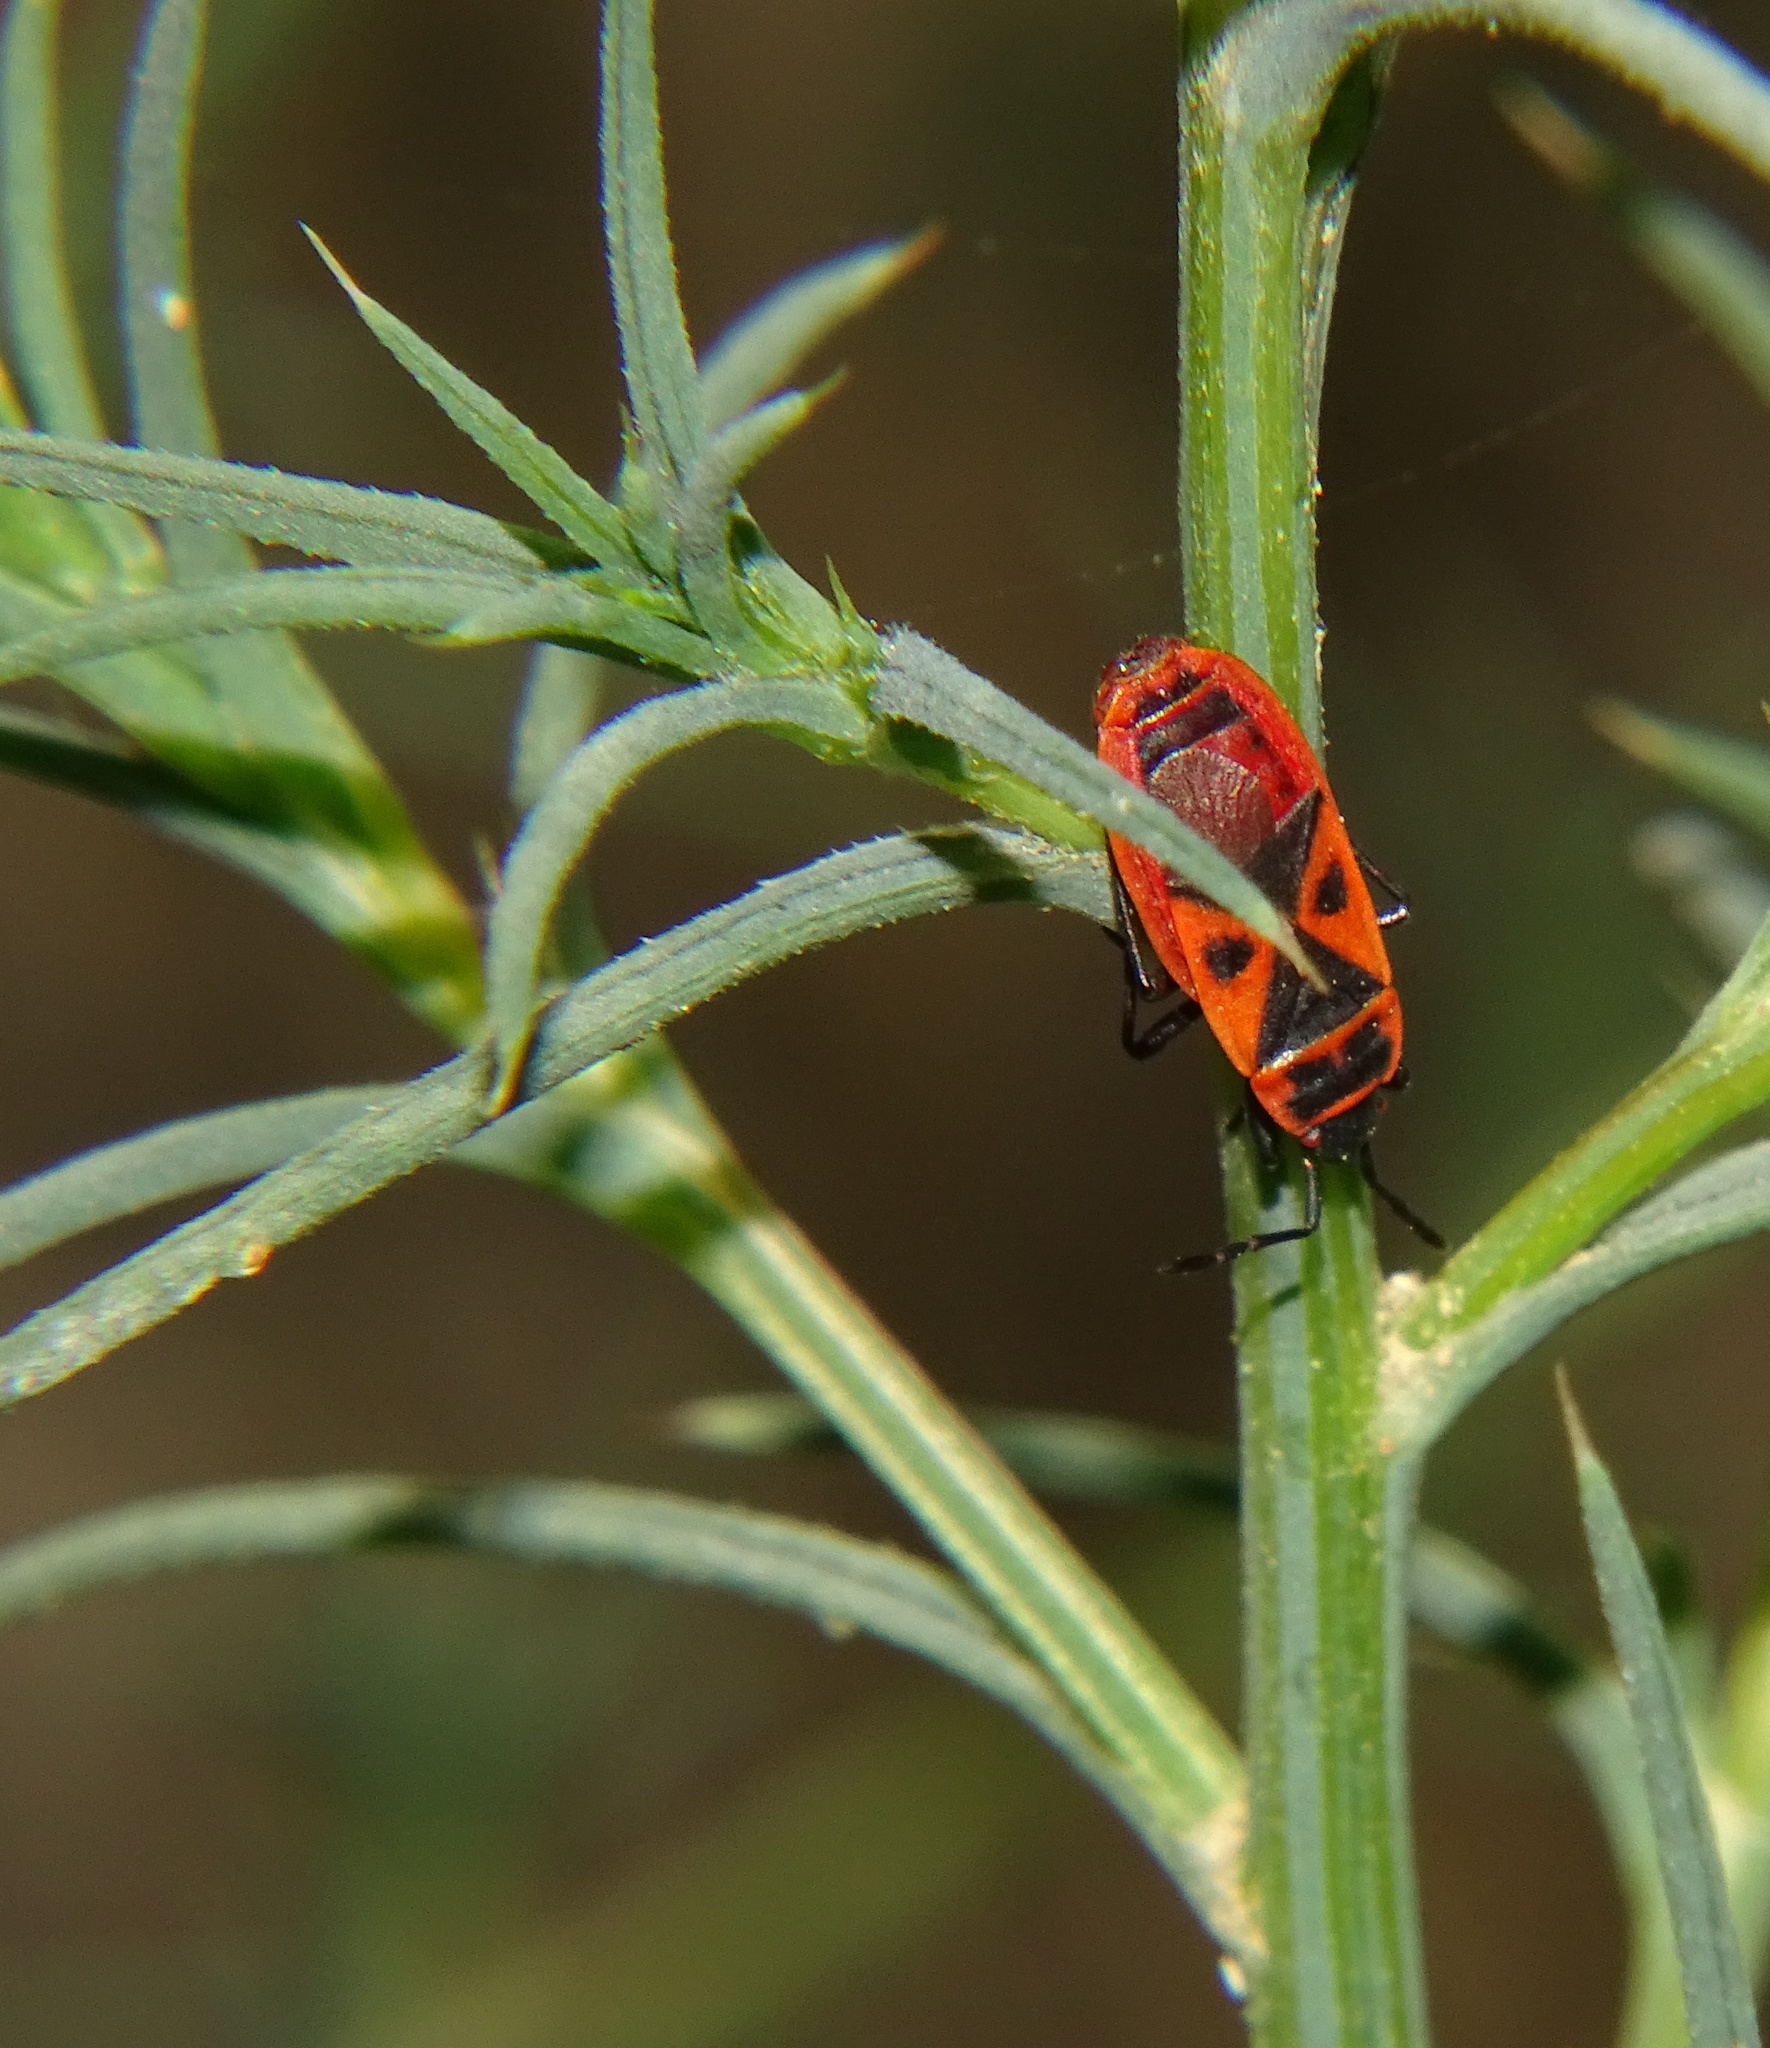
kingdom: Animalia
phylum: Arthropoda
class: Insecta
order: Hemiptera
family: Pyrrhocoridae
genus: Scantius
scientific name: Scantius aegyptius
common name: Red bug
